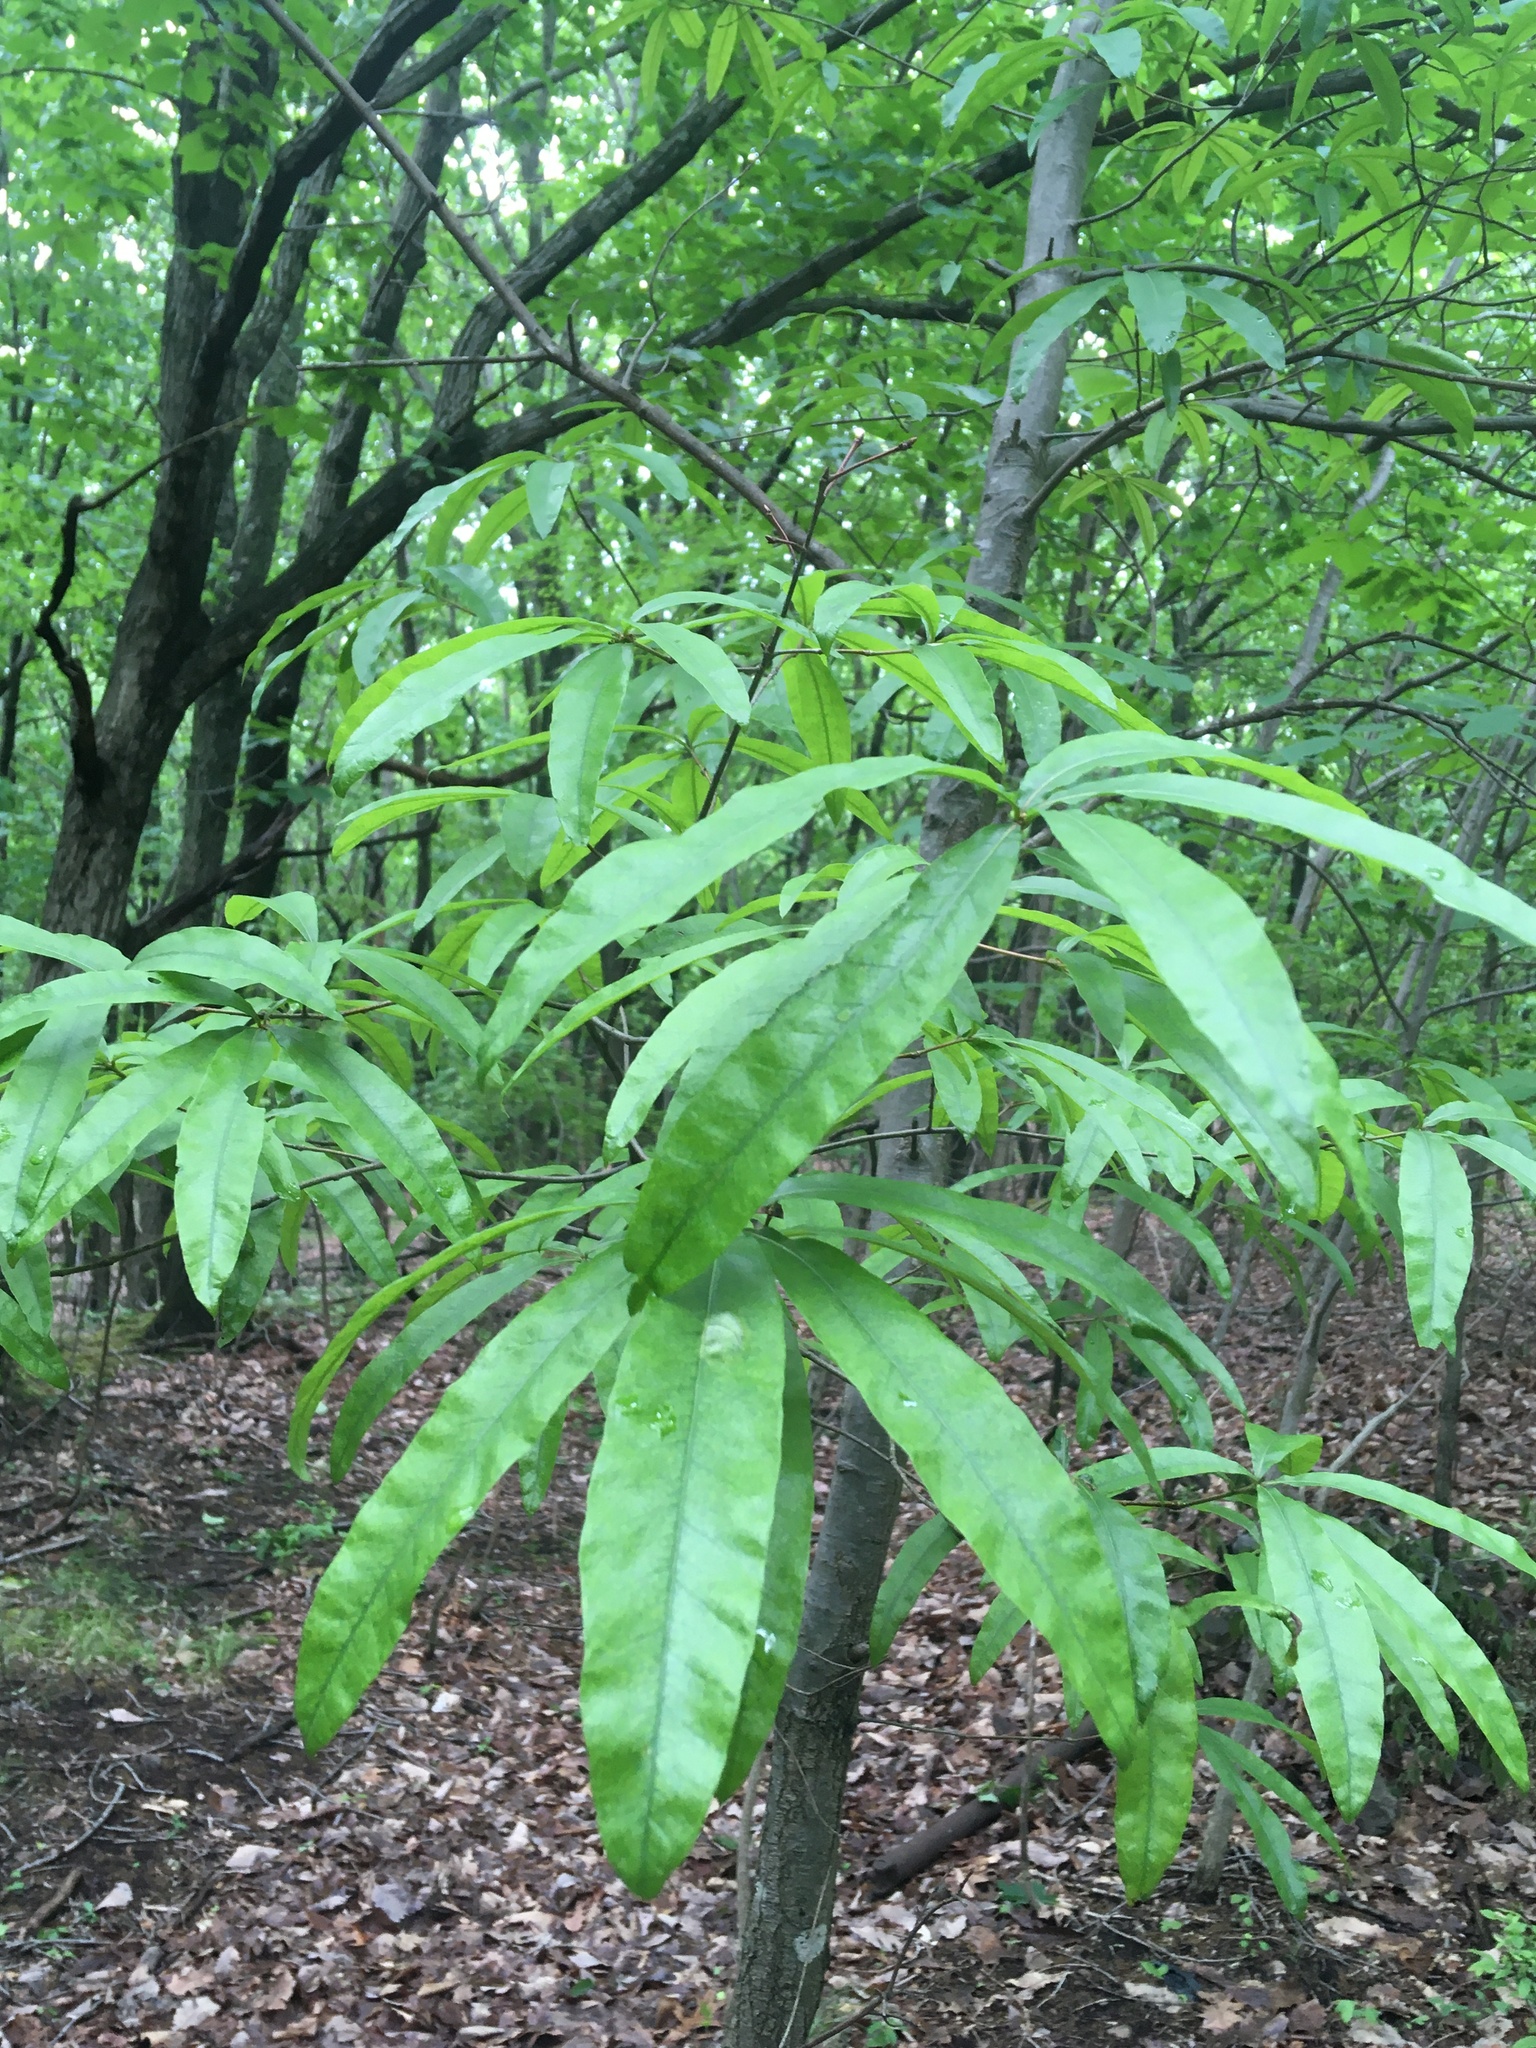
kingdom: Plantae
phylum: Tracheophyta
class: Magnoliopsida
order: Fagales
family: Fagaceae
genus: Quercus
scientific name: Quercus phellos
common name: Willow oak
